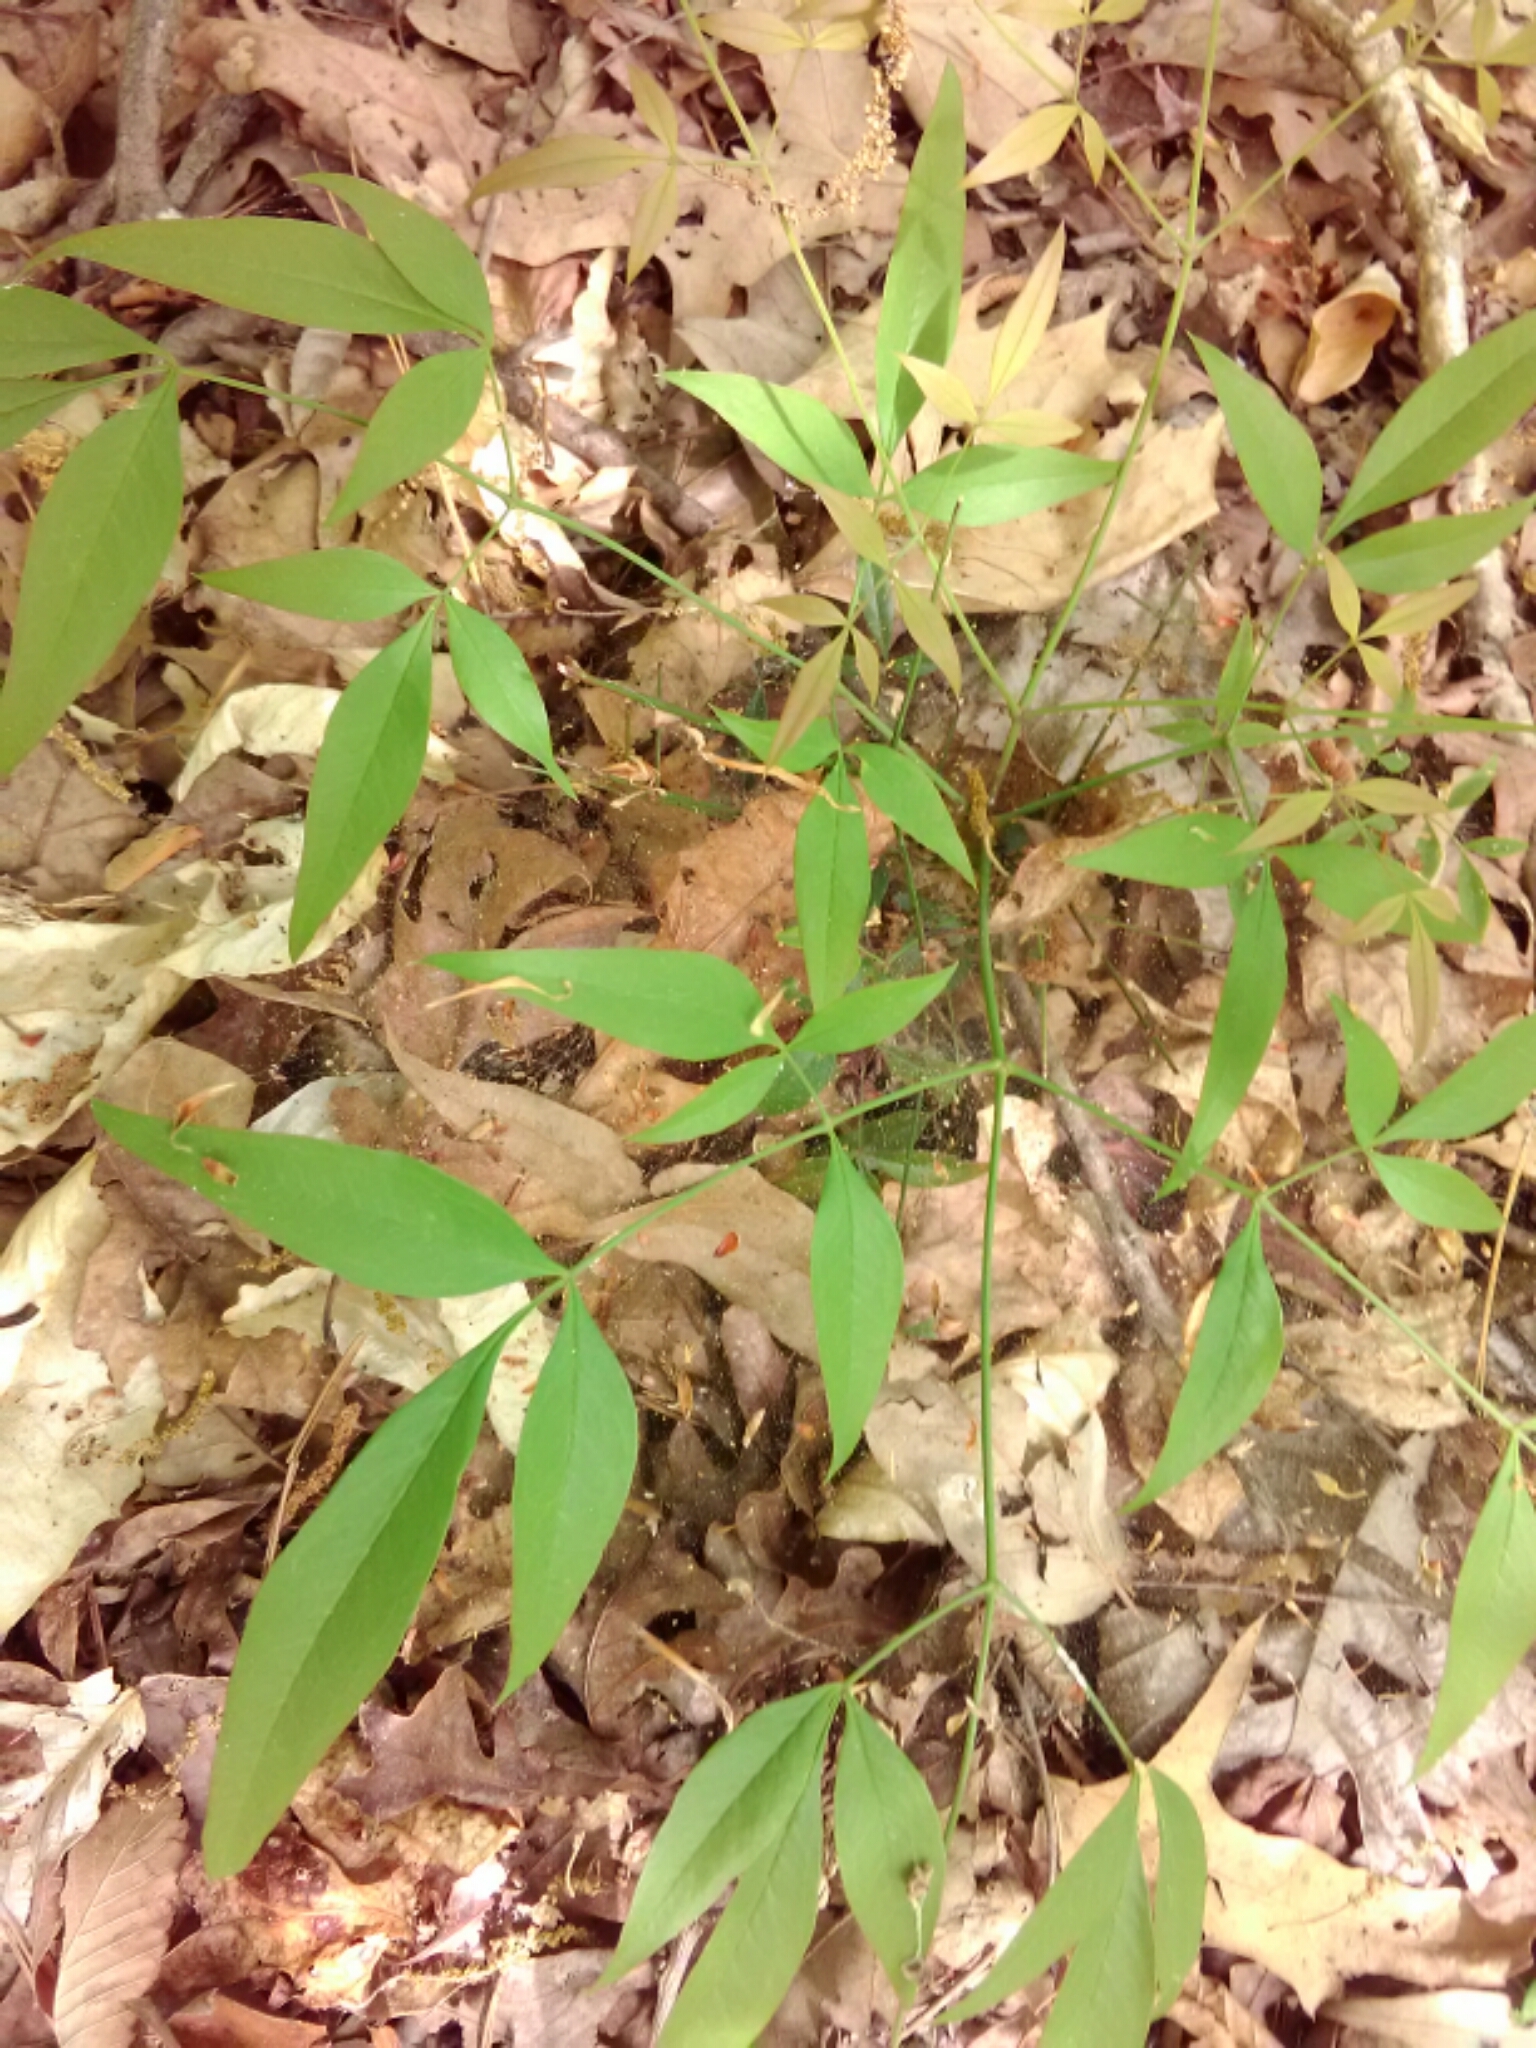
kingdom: Plantae
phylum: Tracheophyta
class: Magnoliopsida
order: Ranunculales
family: Berberidaceae
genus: Nandina
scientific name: Nandina domestica
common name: Sacred bamboo
